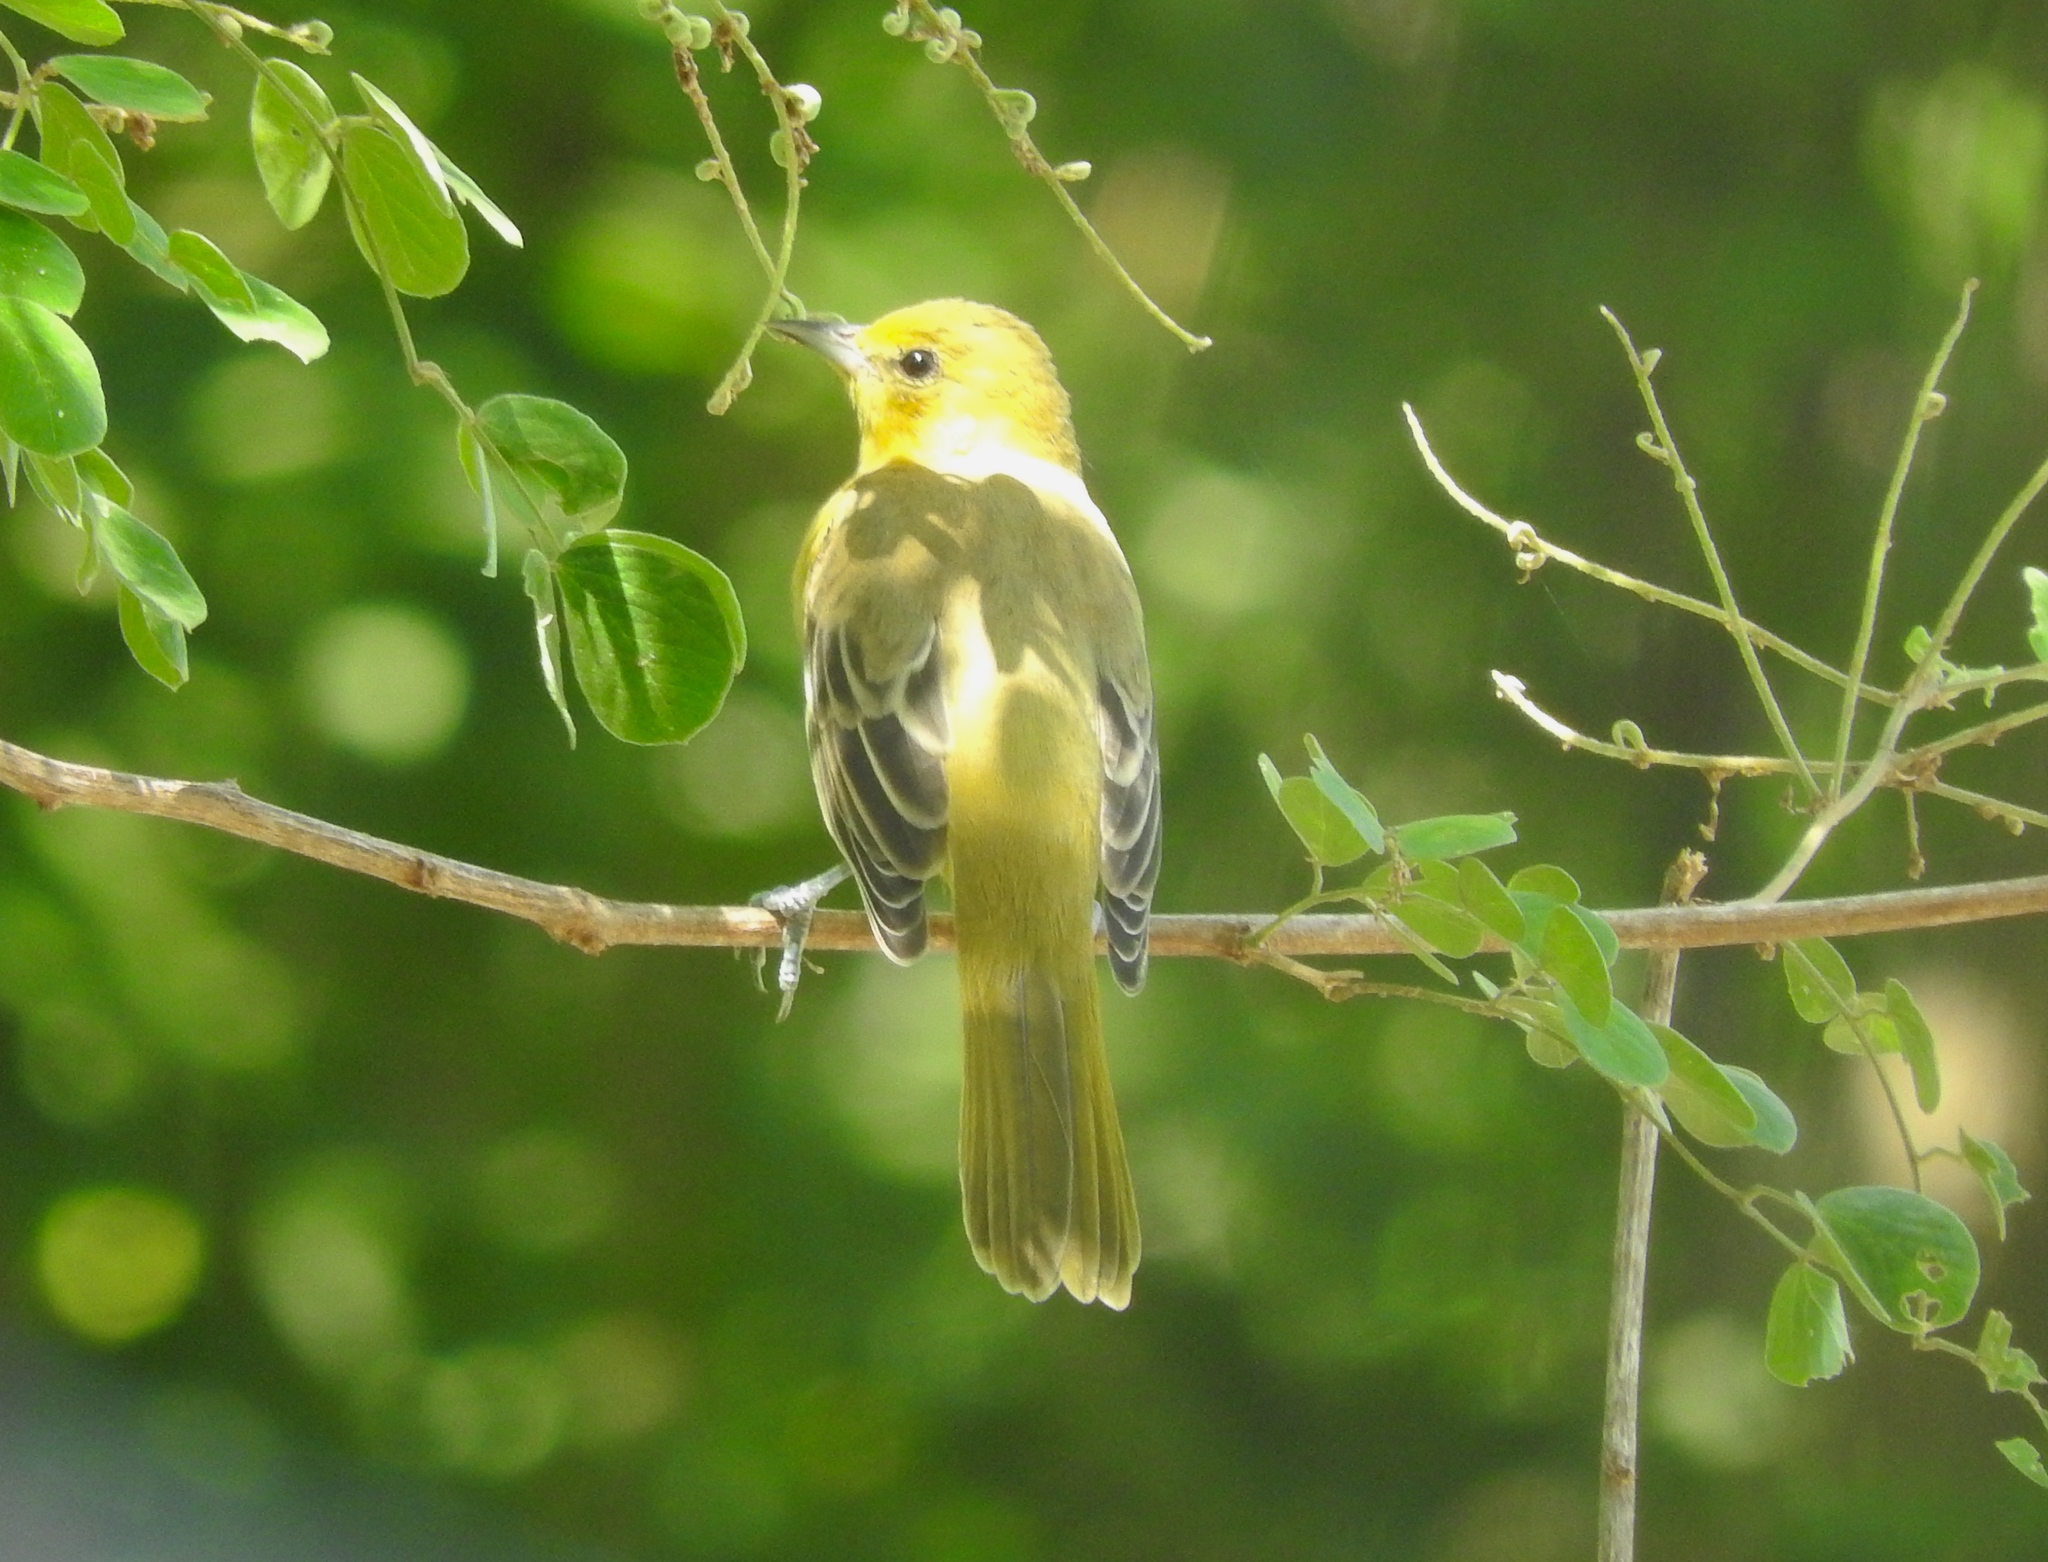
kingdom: Animalia
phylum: Chordata
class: Aves
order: Passeriformes
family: Icteridae
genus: Icterus
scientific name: Icterus spurius
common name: Orchard oriole
